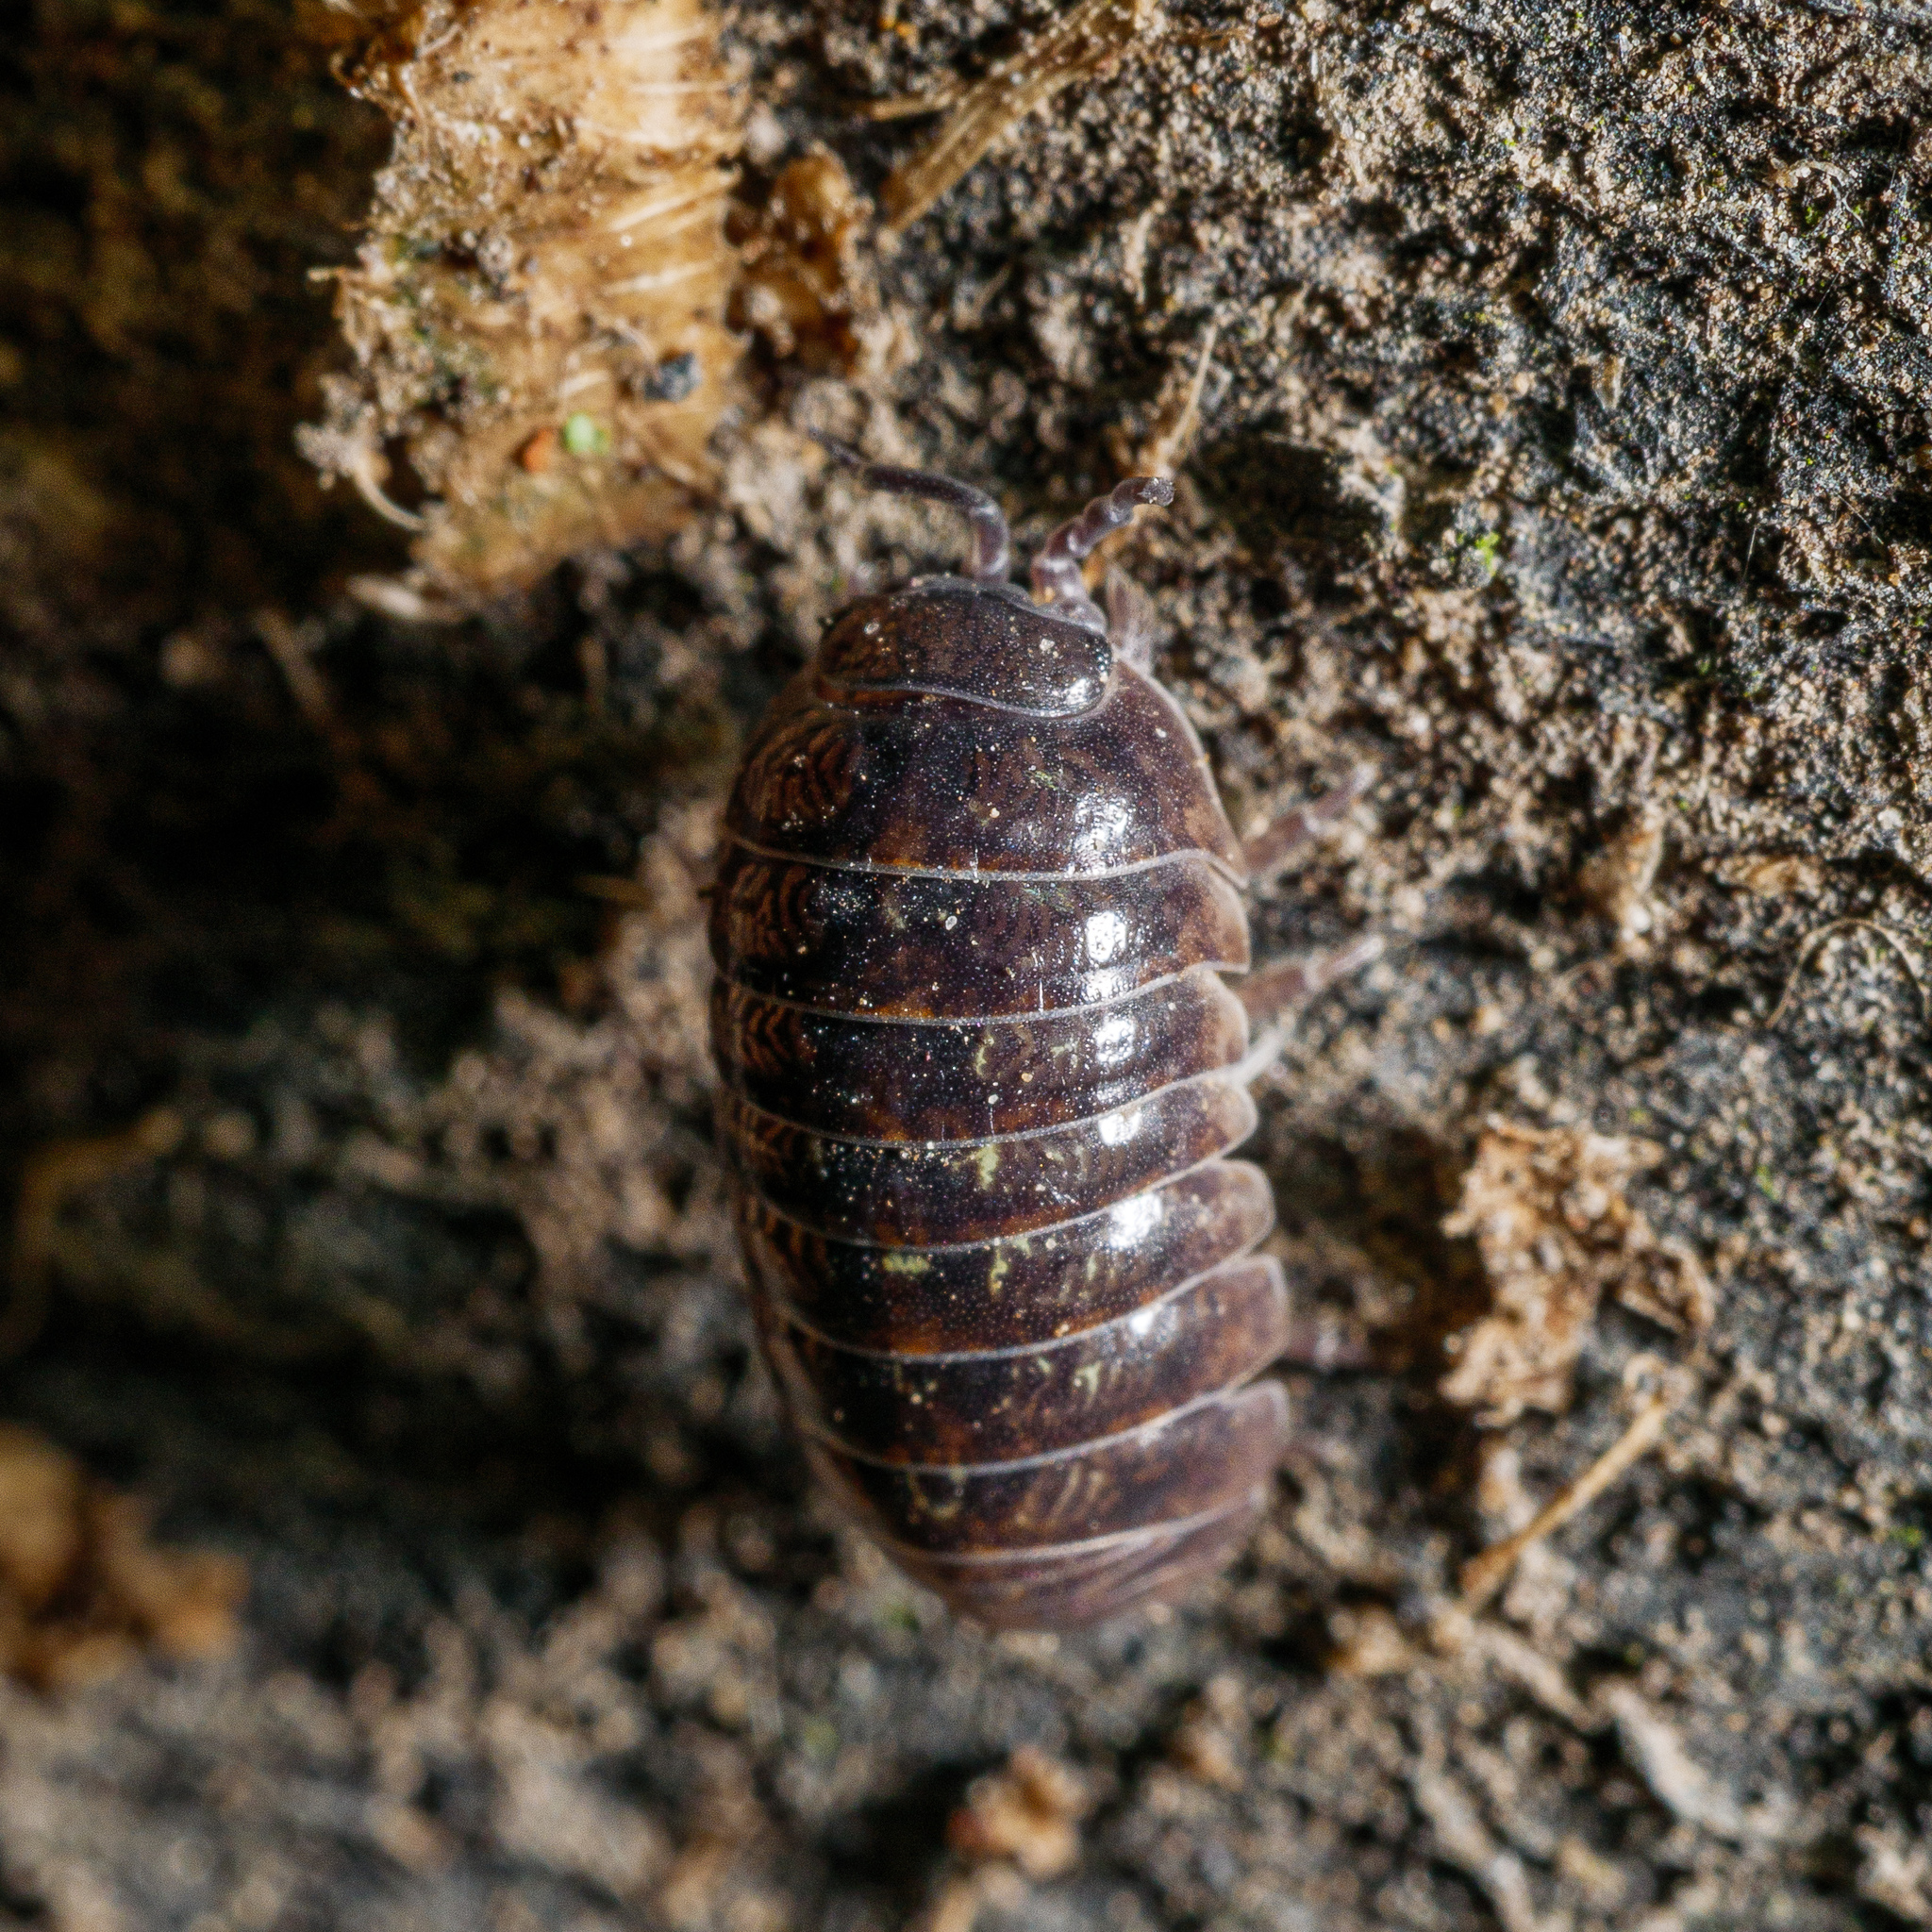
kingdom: Animalia
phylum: Arthropoda
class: Malacostraca
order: Isopoda
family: Armadillidiidae
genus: Armadillidium
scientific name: Armadillidium vulgare
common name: Common pill woodlouse
